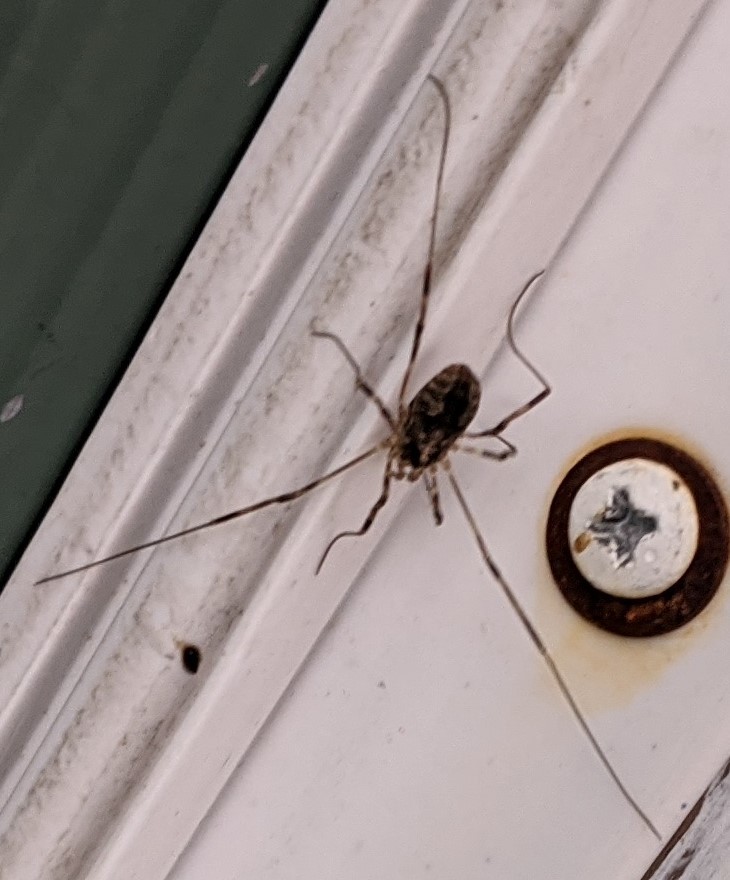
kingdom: Animalia
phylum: Arthropoda
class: Arachnida
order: Opiliones
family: Phalangiidae
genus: Odiellus
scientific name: Odiellus pictus
